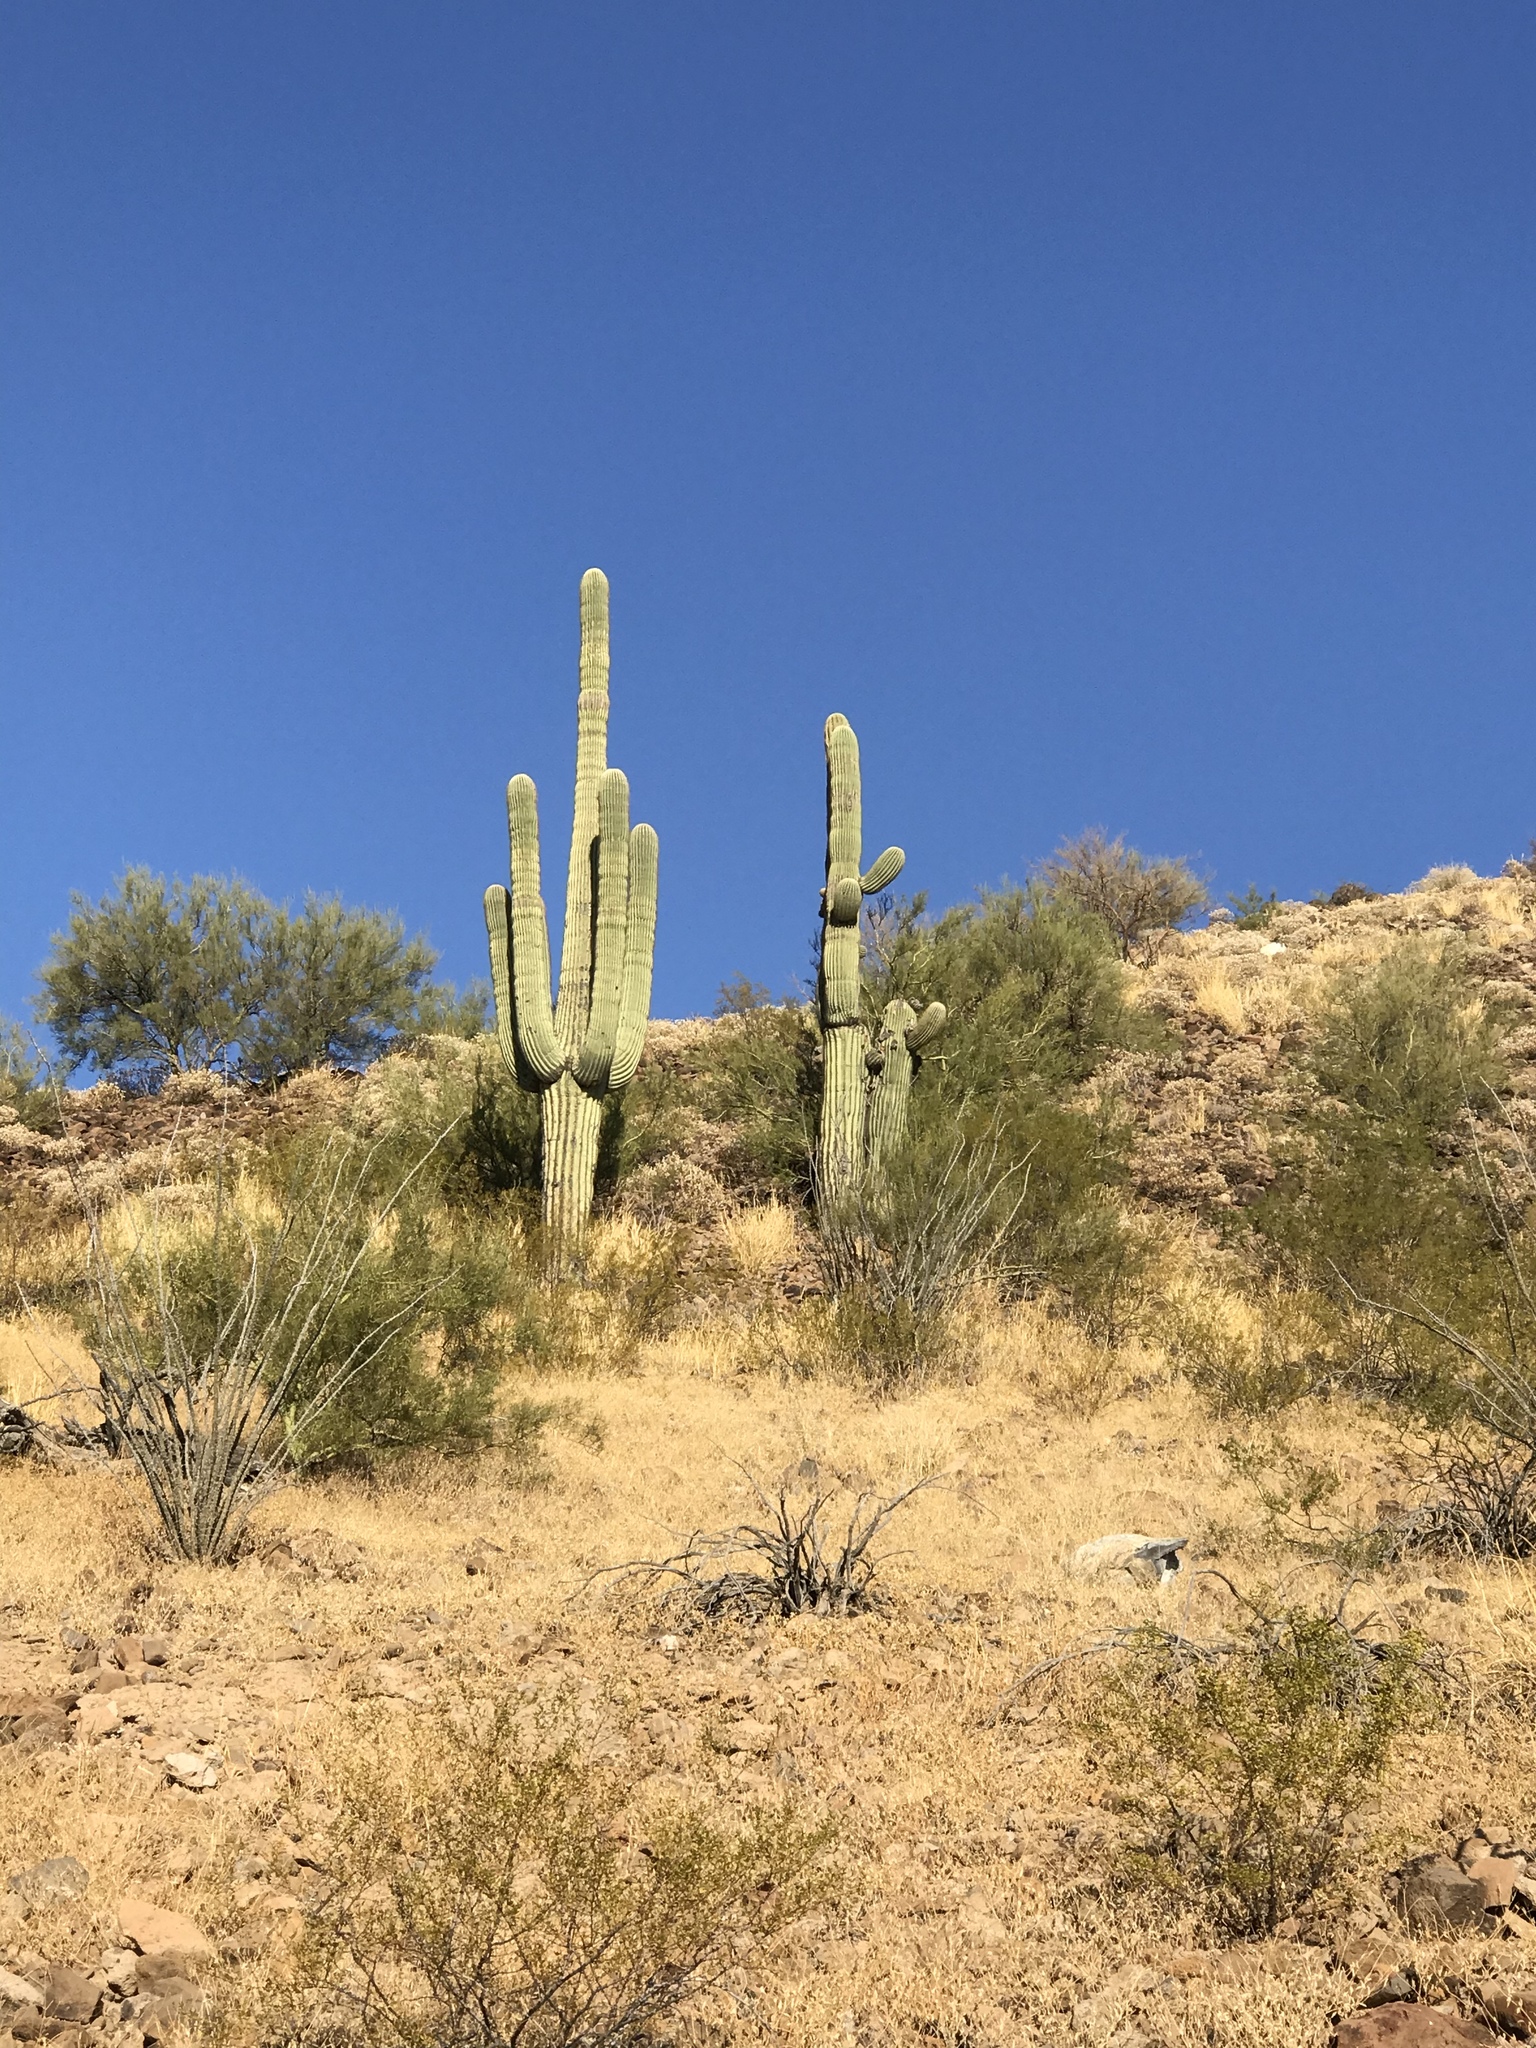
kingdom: Plantae
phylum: Tracheophyta
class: Magnoliopsida
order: Caryophyllales
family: Cactaceae
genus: Carnegiea
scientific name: Carnegiea gigantea
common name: Saguaro
